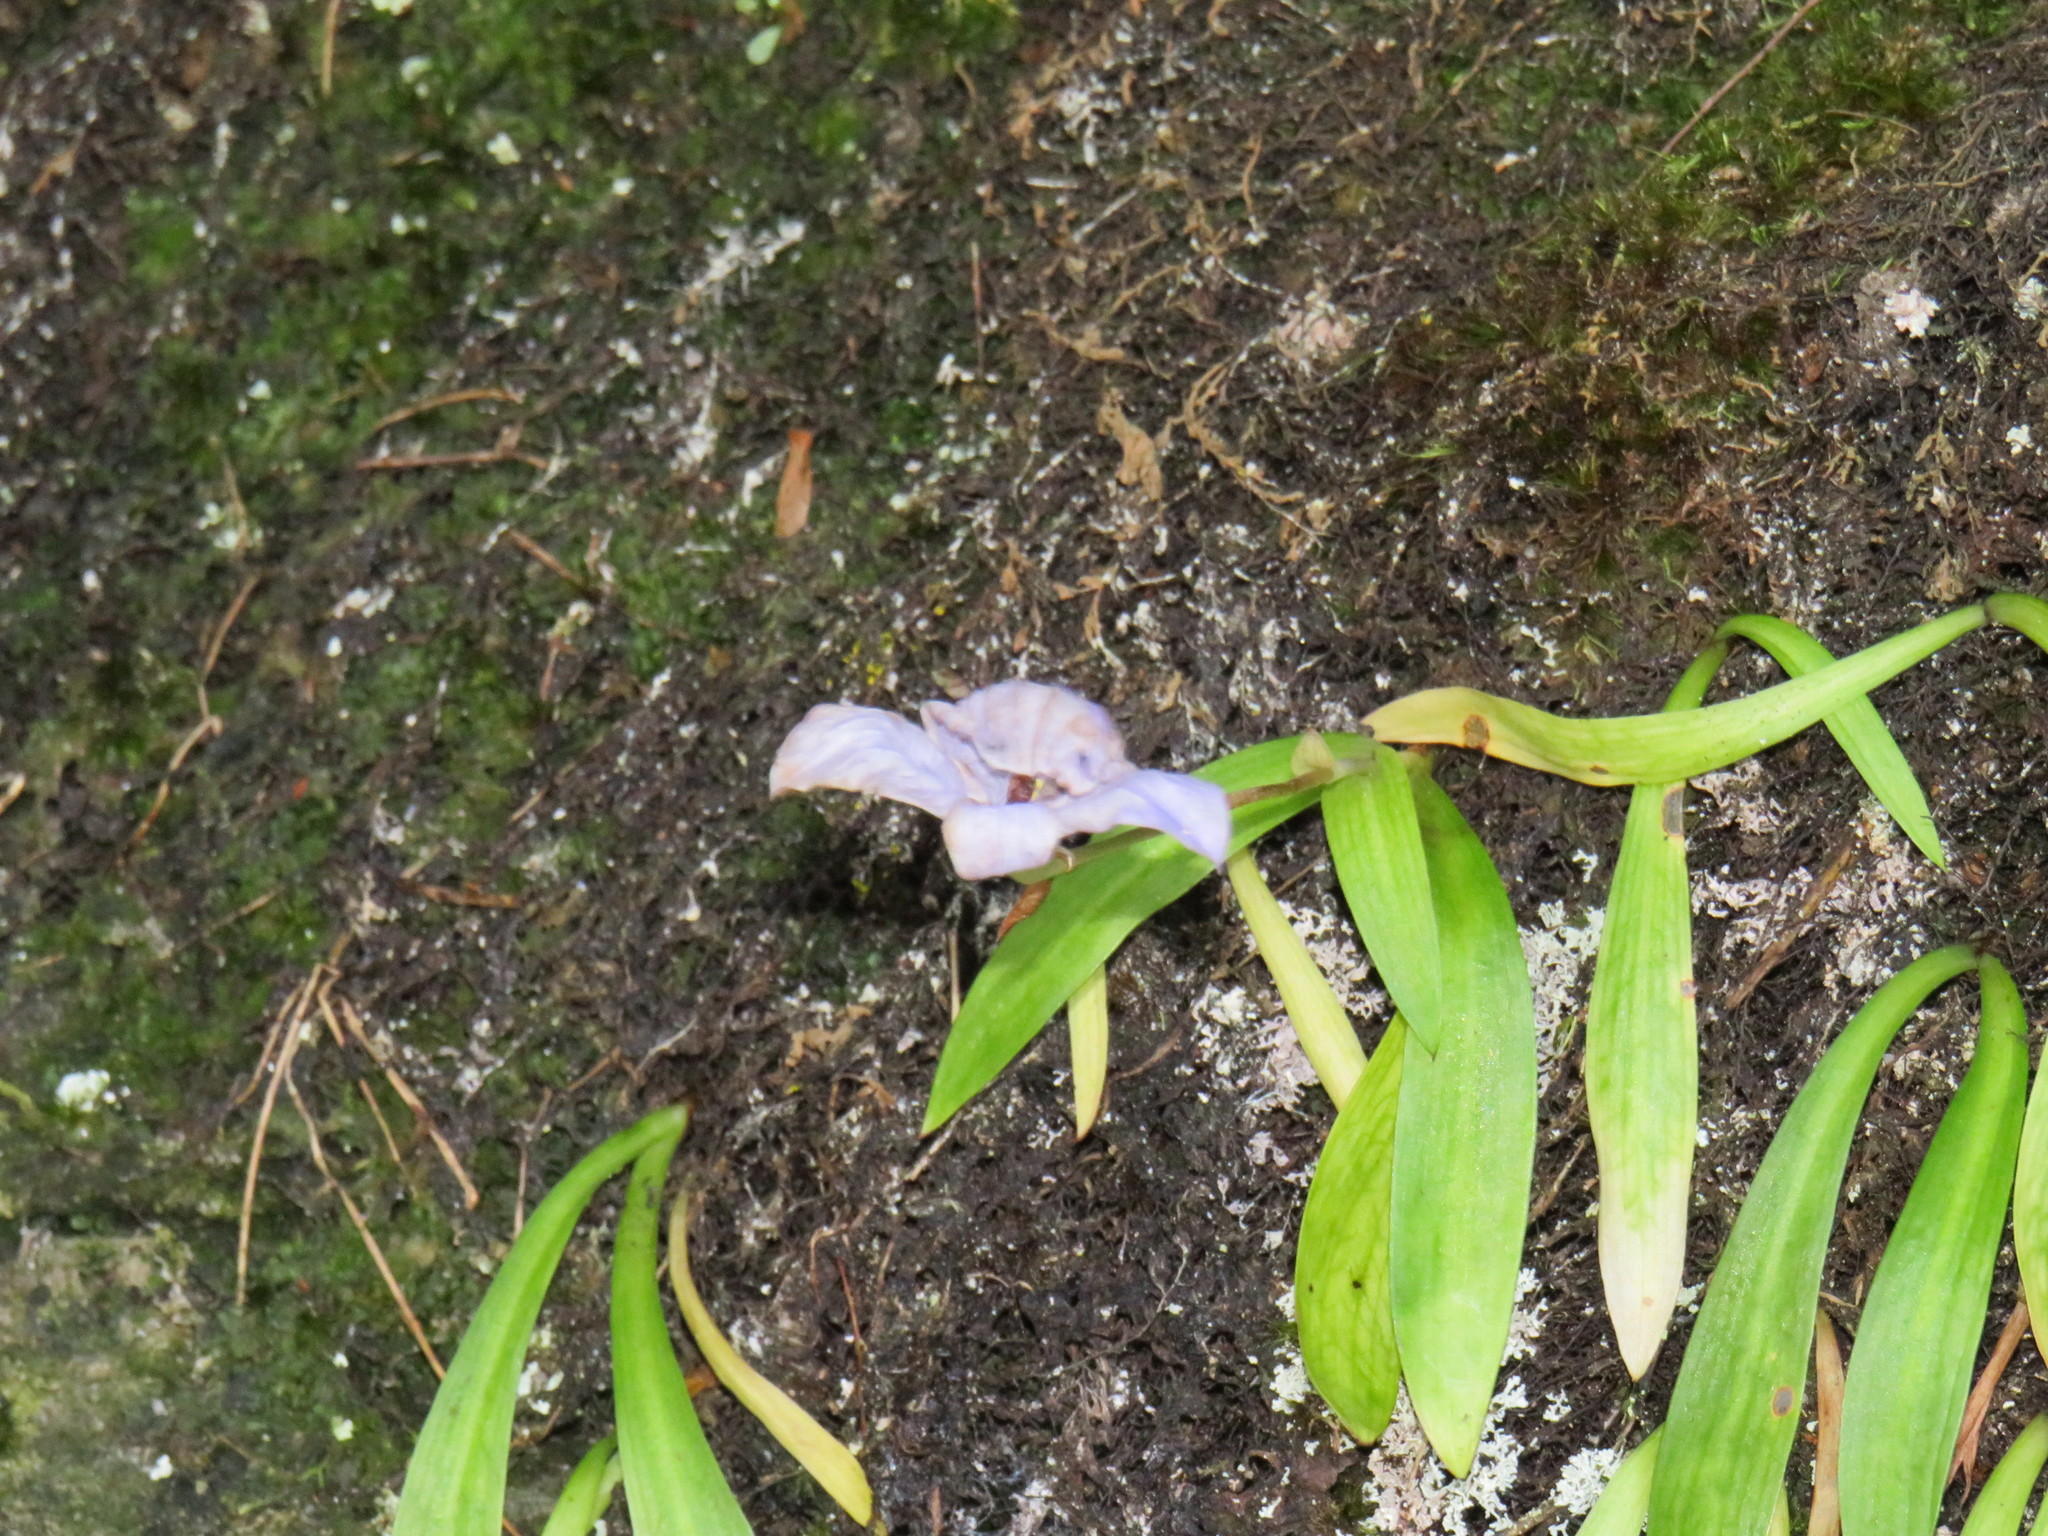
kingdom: Plantae
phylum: Tracheophyta
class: Liliopsida
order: Asparagales
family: Orchidaceae
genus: Disa
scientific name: Disa longicornu
